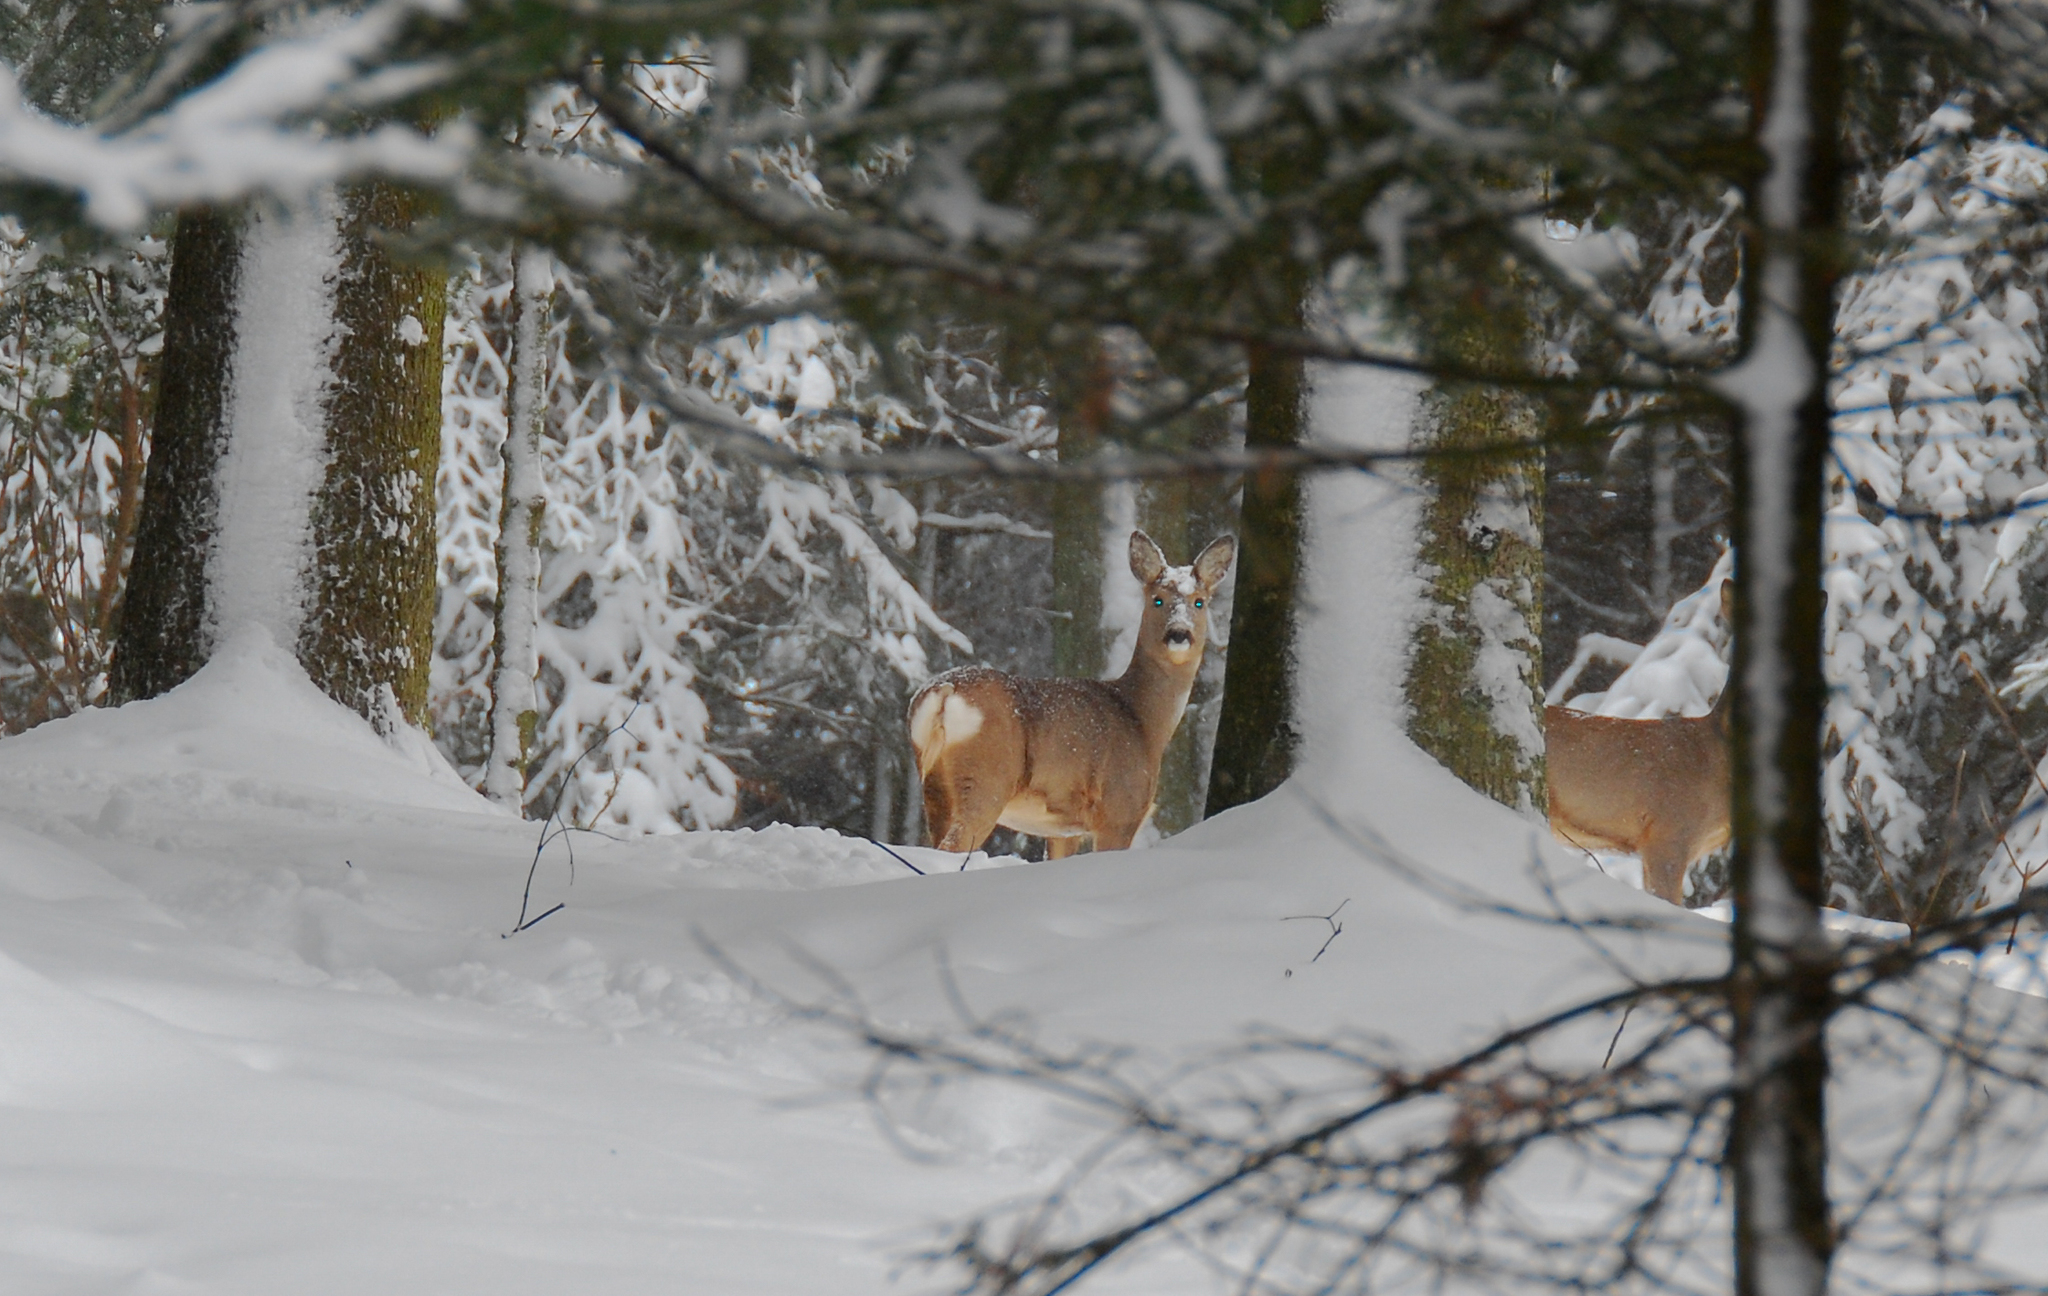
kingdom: Animalia
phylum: Chordata
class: Mammalia
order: Artiodactyla
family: Cervidae
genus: Capreolus
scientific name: Capreolus capreolus
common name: Western roe deer
